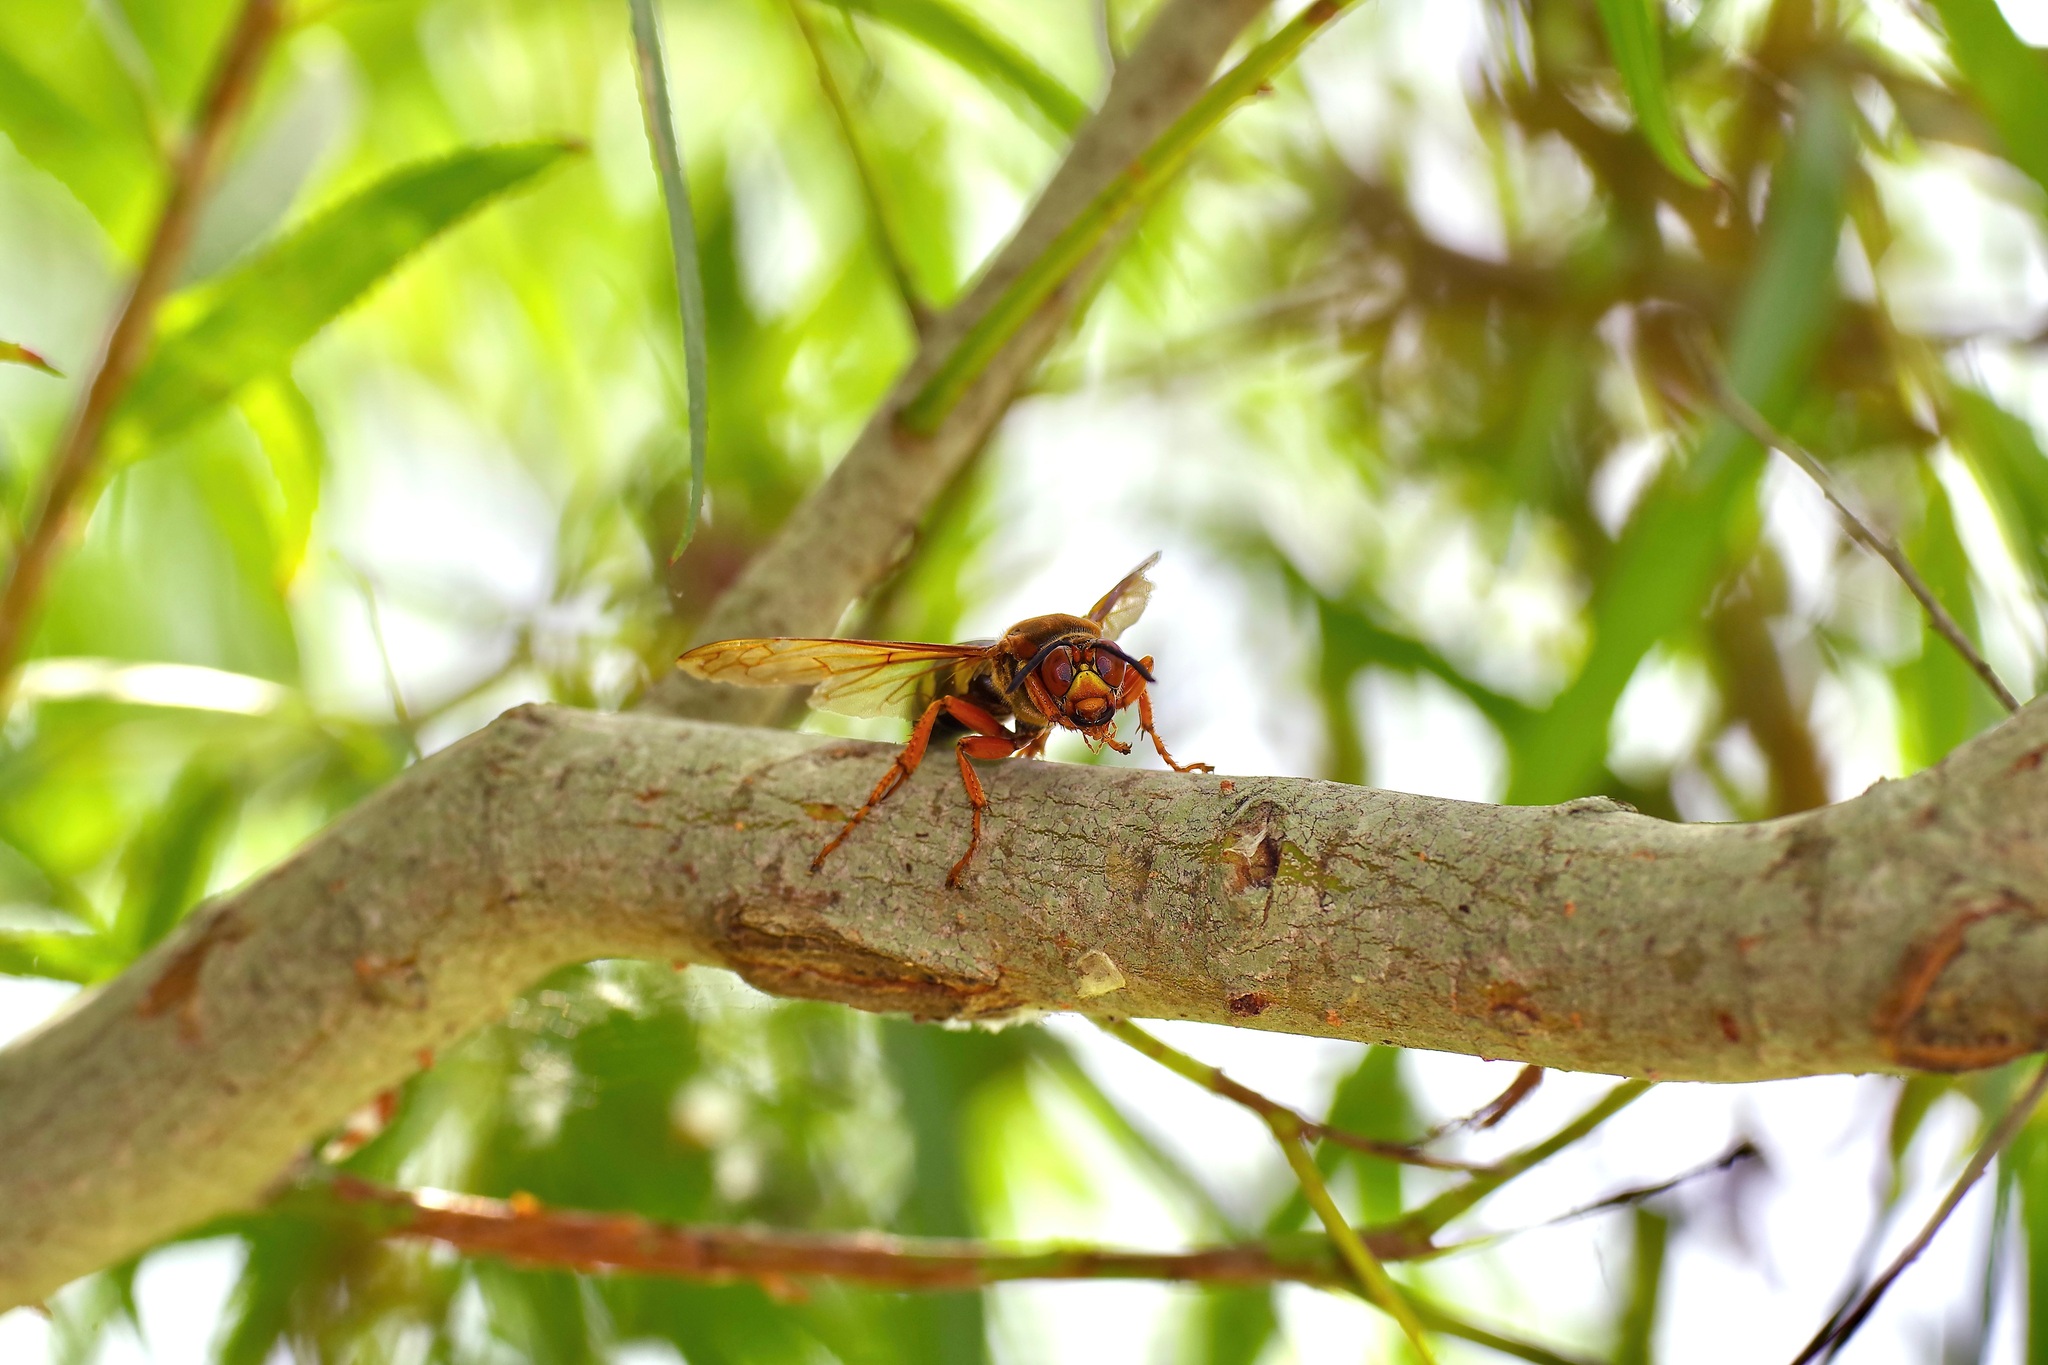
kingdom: Animalia
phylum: Arthropoda
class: Insecta
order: Hymenoptera
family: Crabronidae
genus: Sphecius
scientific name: Sphecius speciosus
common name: Cicada killer
